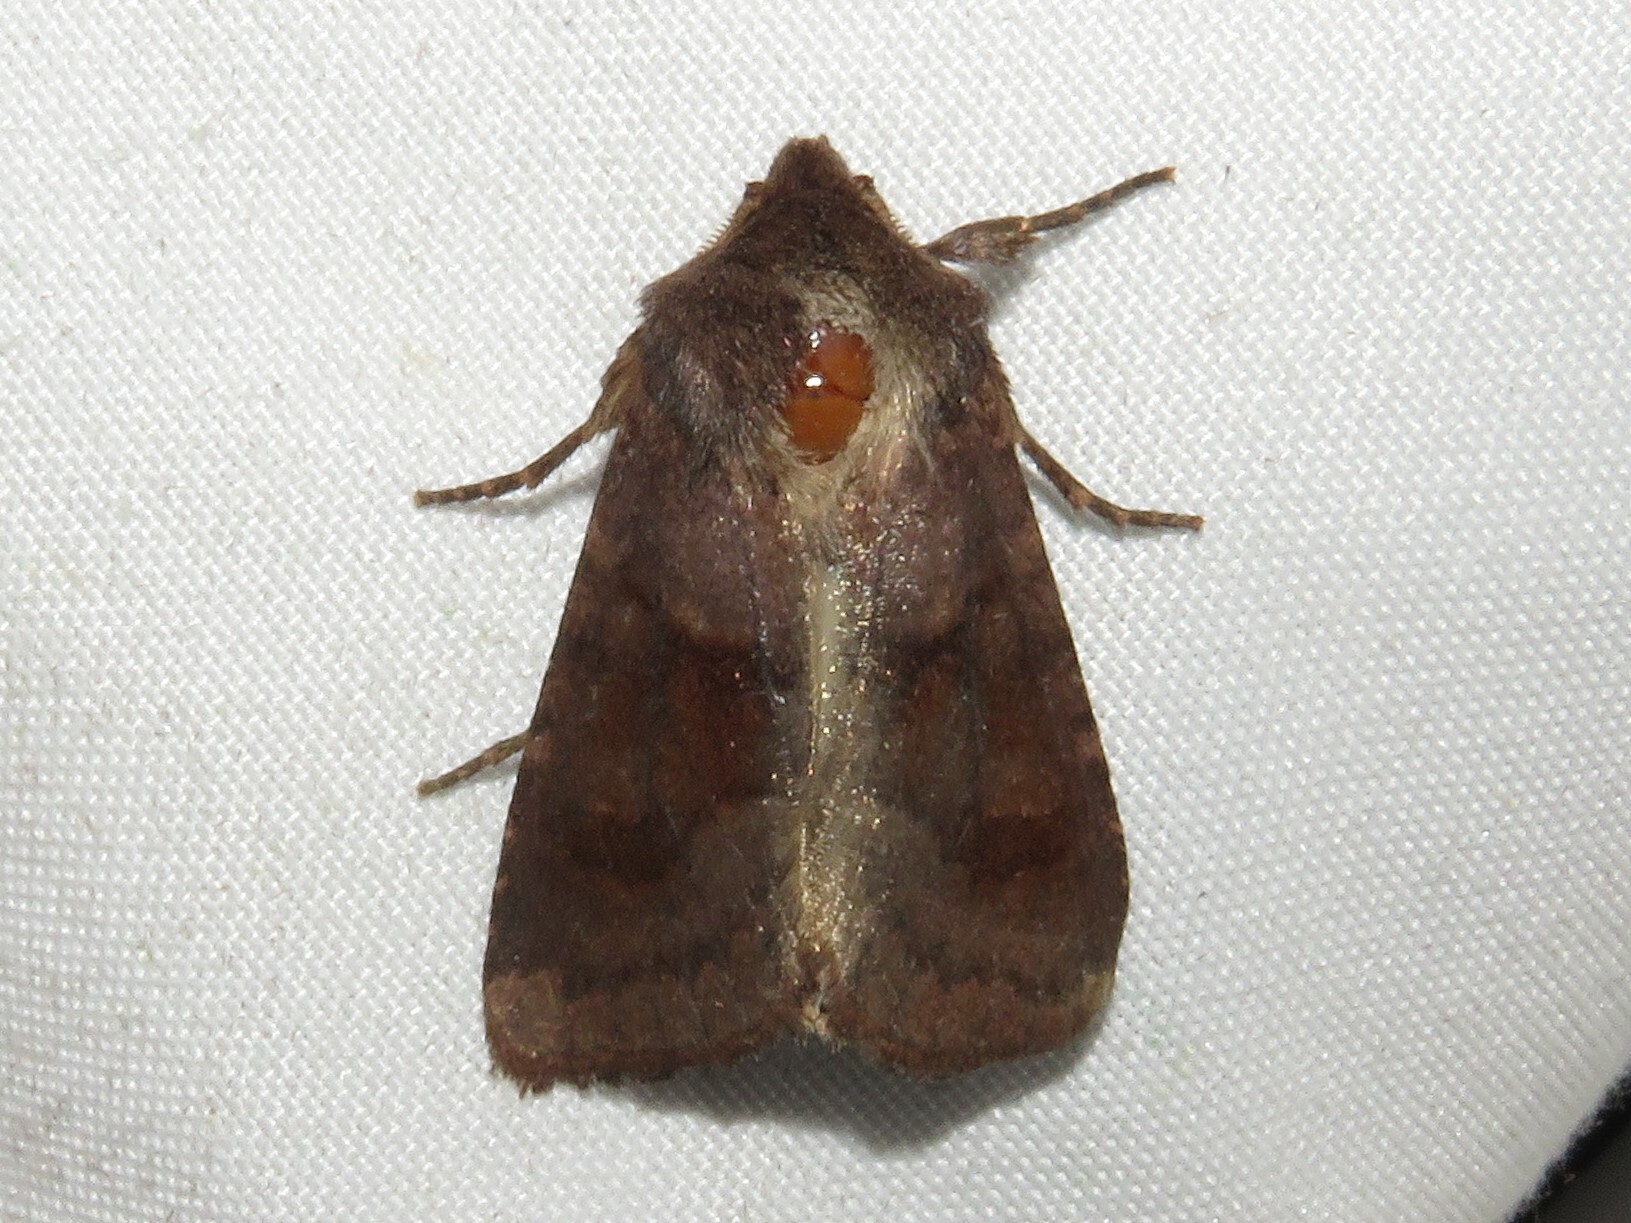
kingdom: Animalia
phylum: Arthropoda
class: Insecta
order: Lepidoptera
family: Noctuidae
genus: Nephelodes
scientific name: Nephelodes minians
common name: Bronzed cutworm
